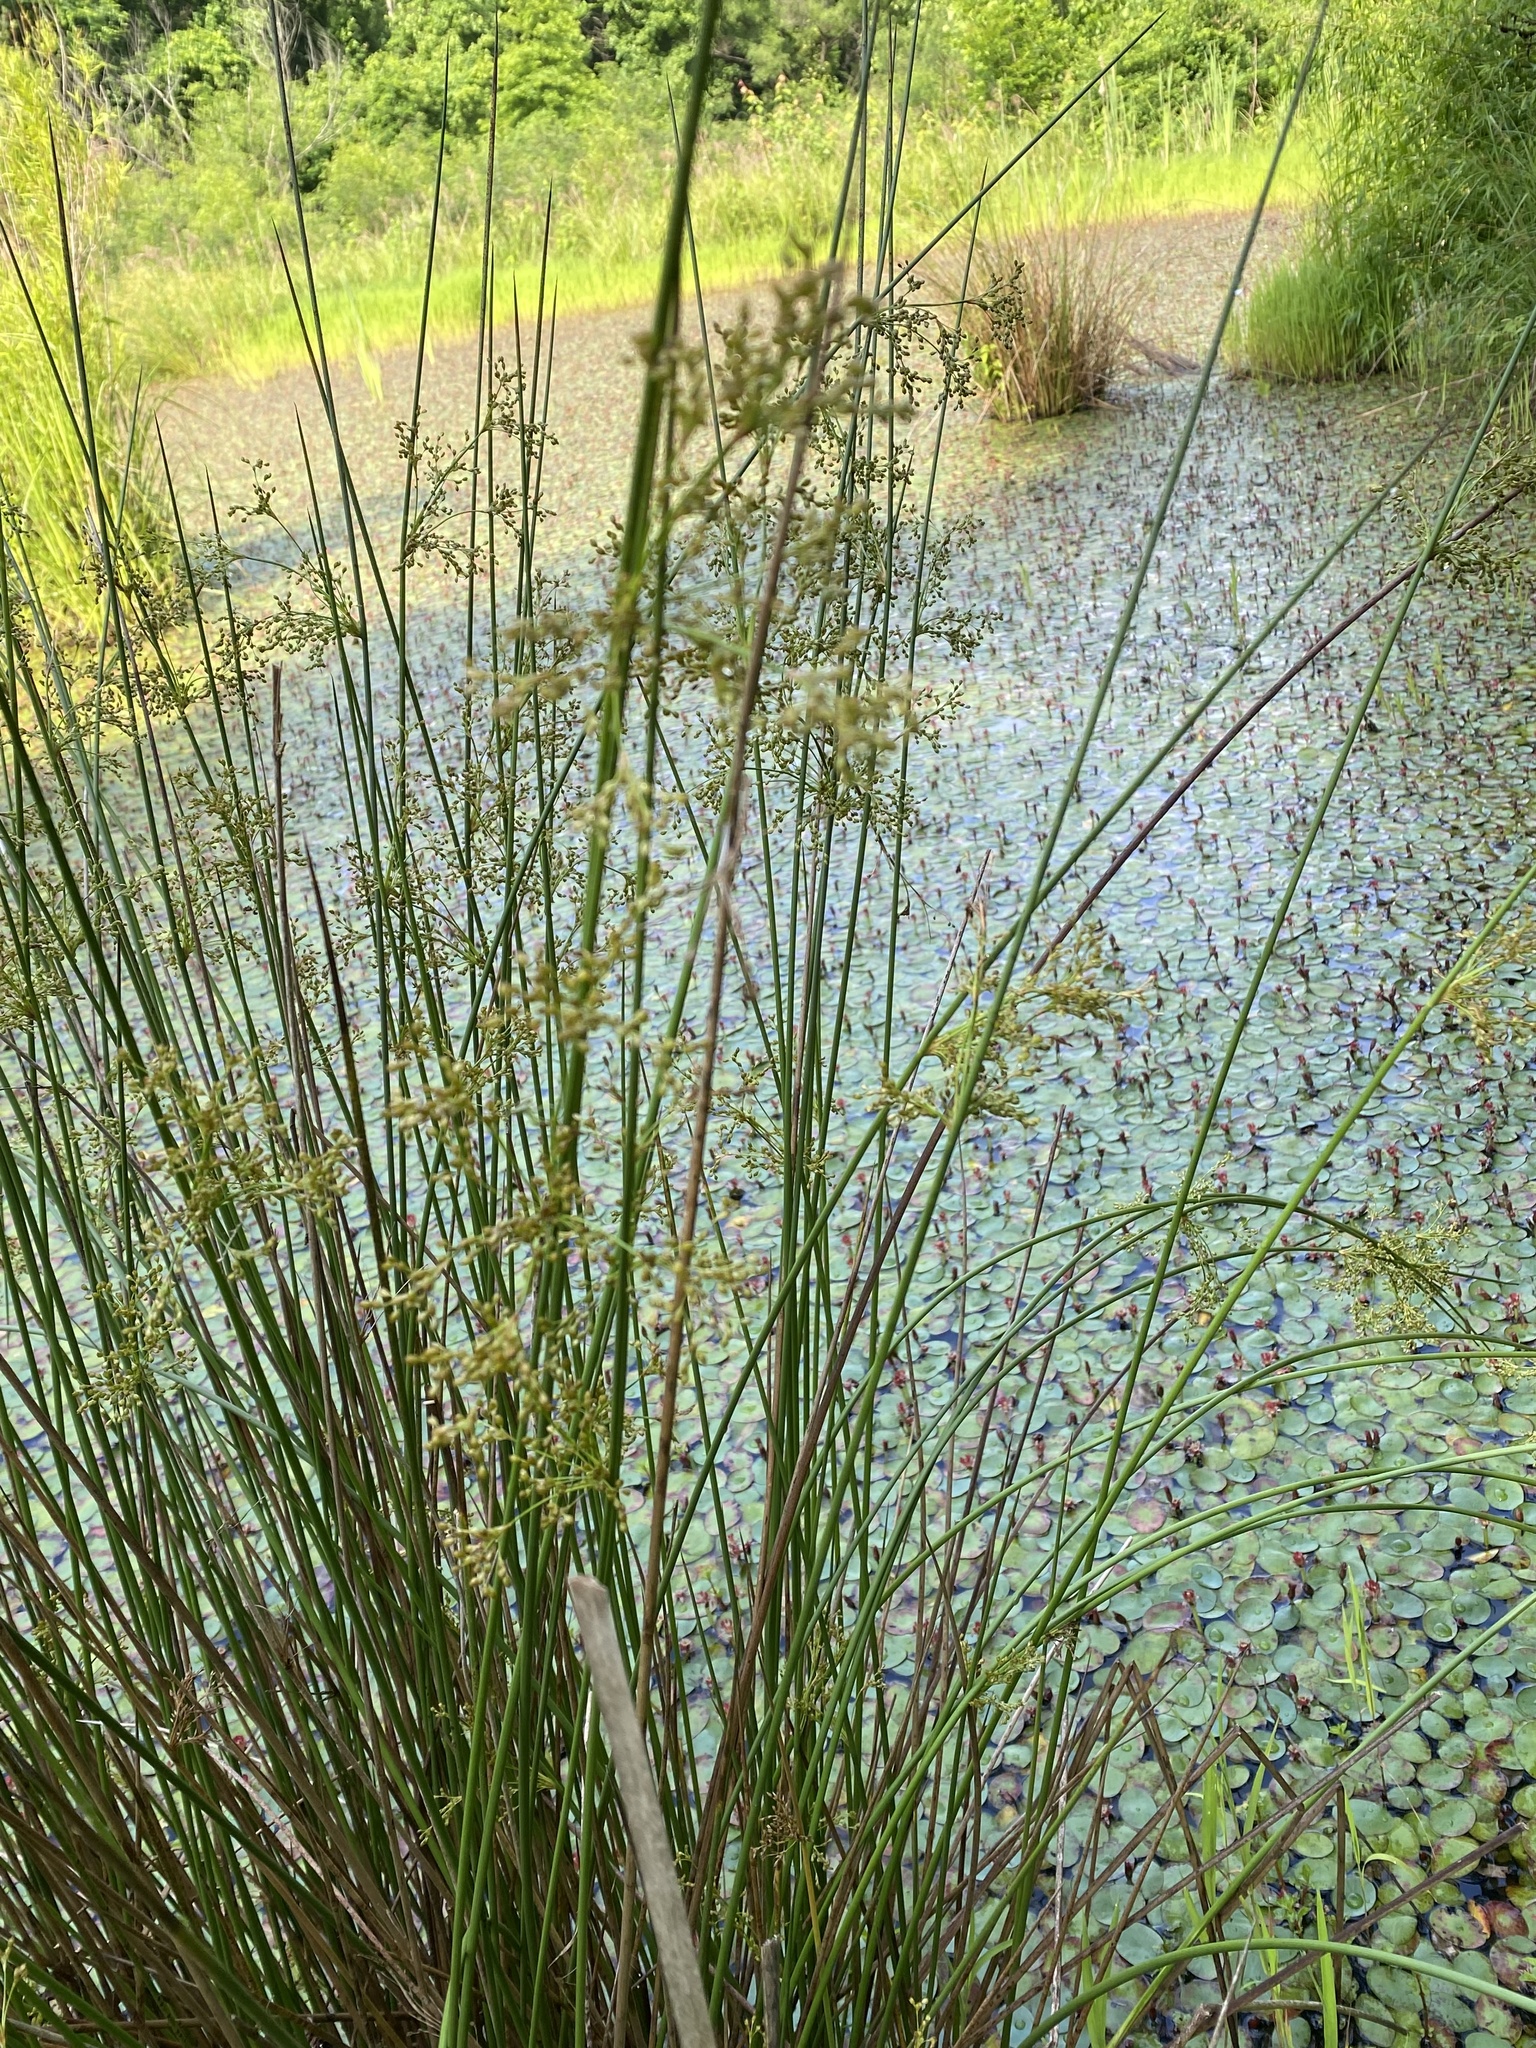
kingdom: Plantae
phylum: Tracheophyta
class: Liliopsida
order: Poales
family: Juncaceae
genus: Juncus
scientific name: Juncus effusus
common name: Soft rush
